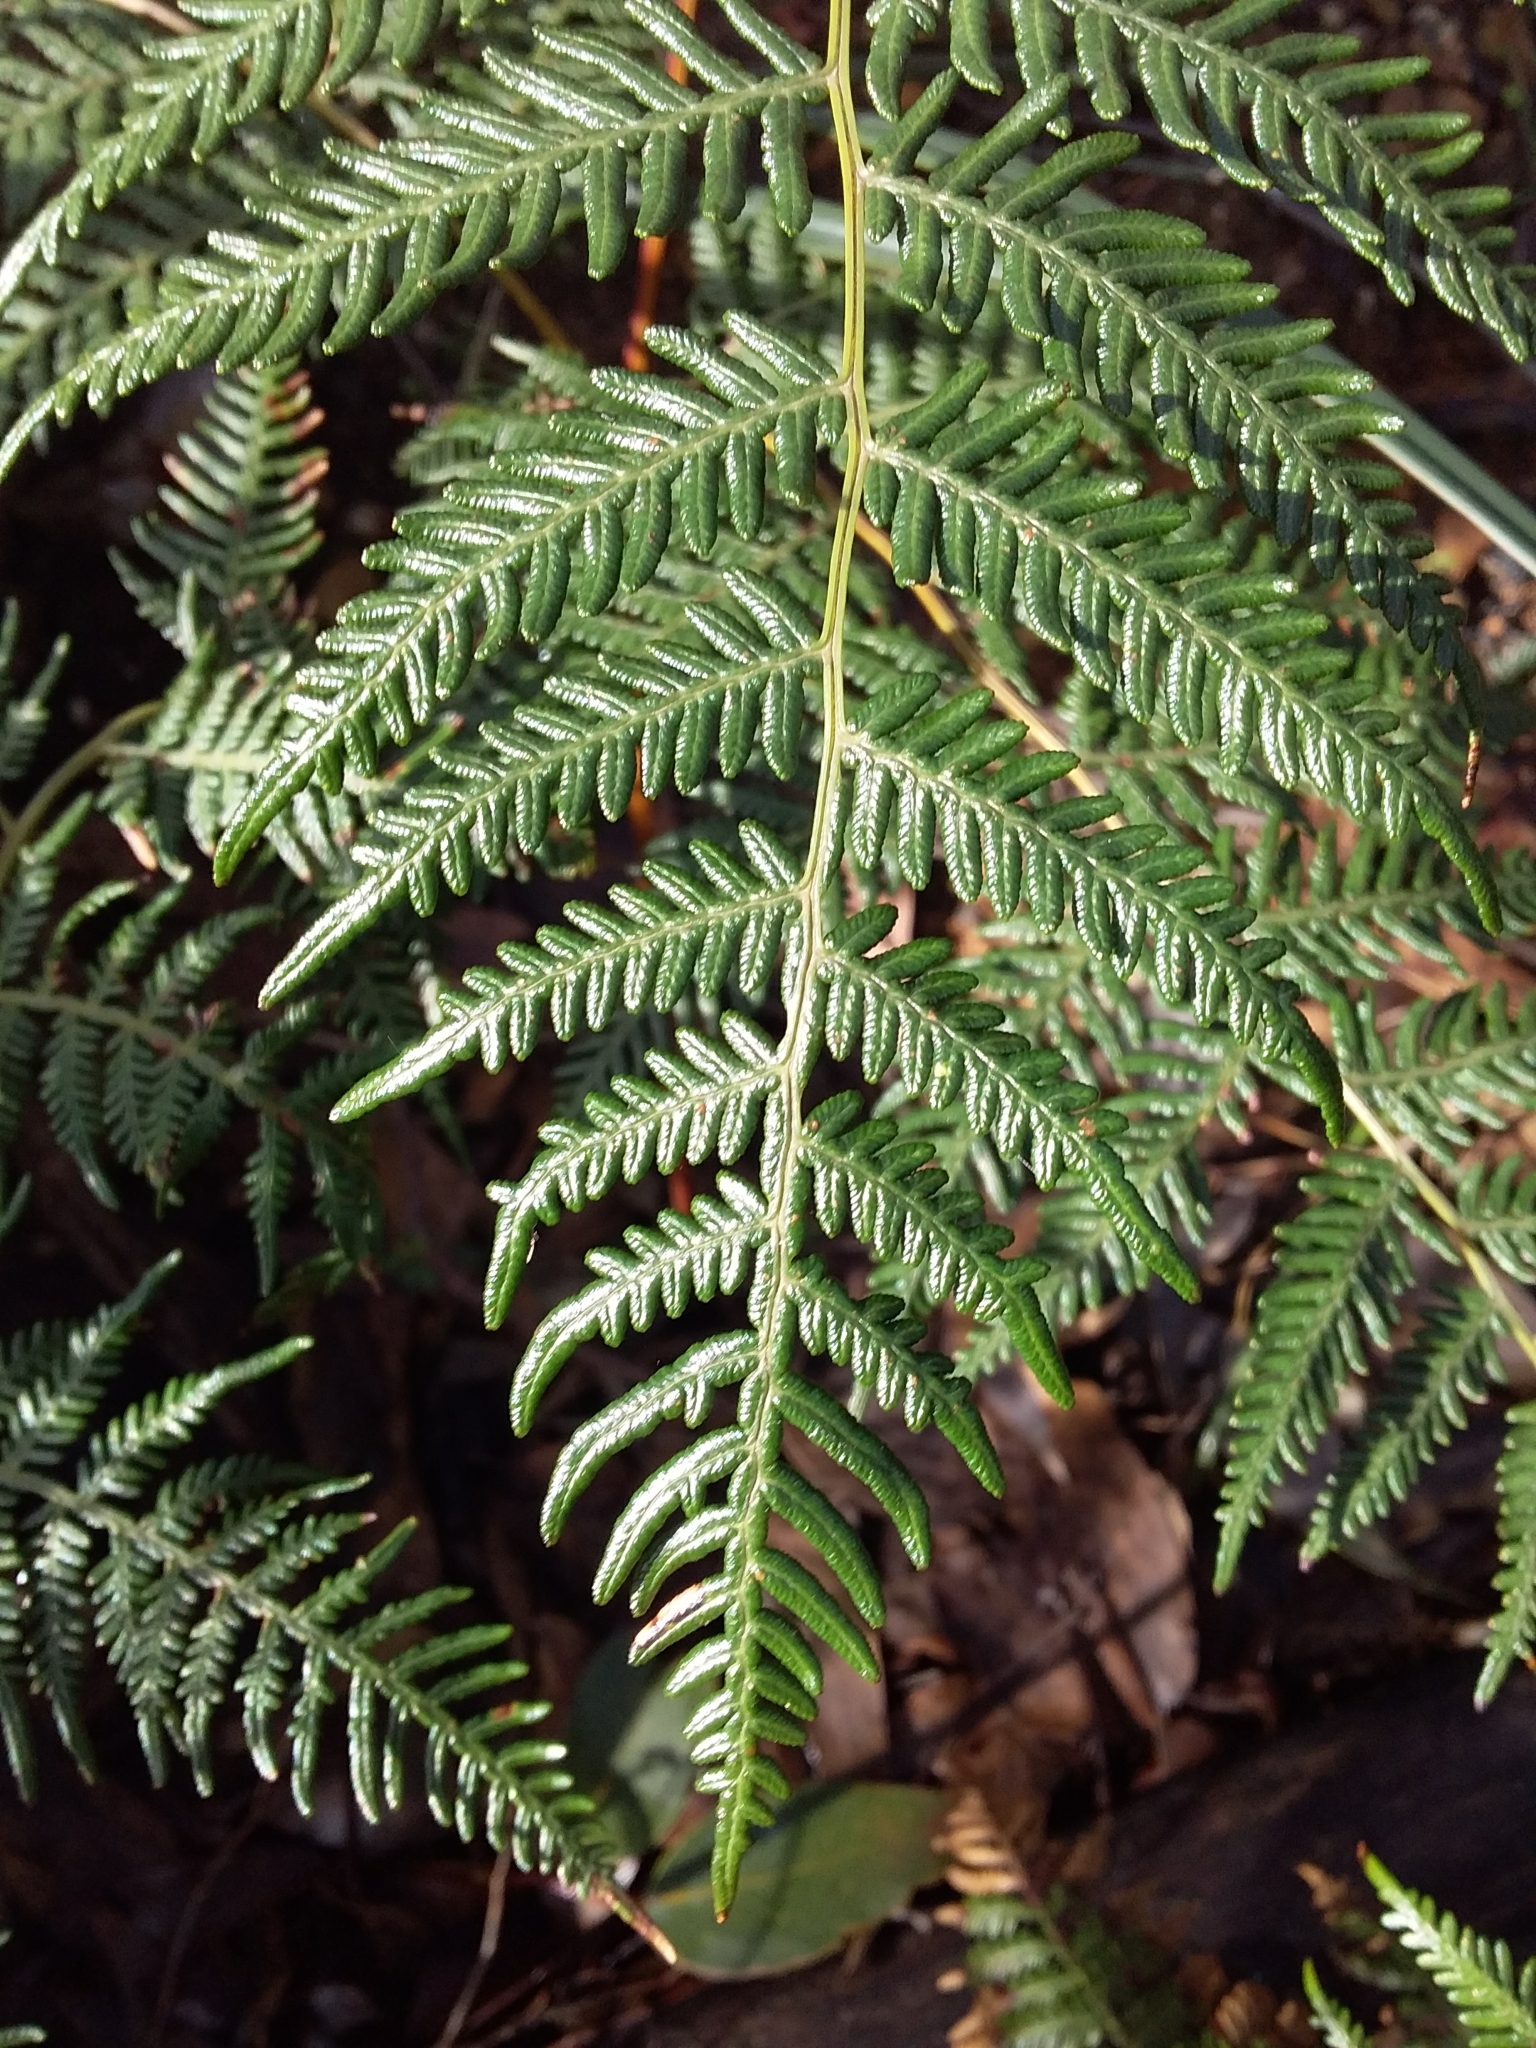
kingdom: Plantae
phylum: Tracheophyta
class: Polypodiopsida
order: Polypodiales
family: Dennstaedtiaceae
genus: Pteridium
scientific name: Pteridium esculentum
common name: Bracken fern
